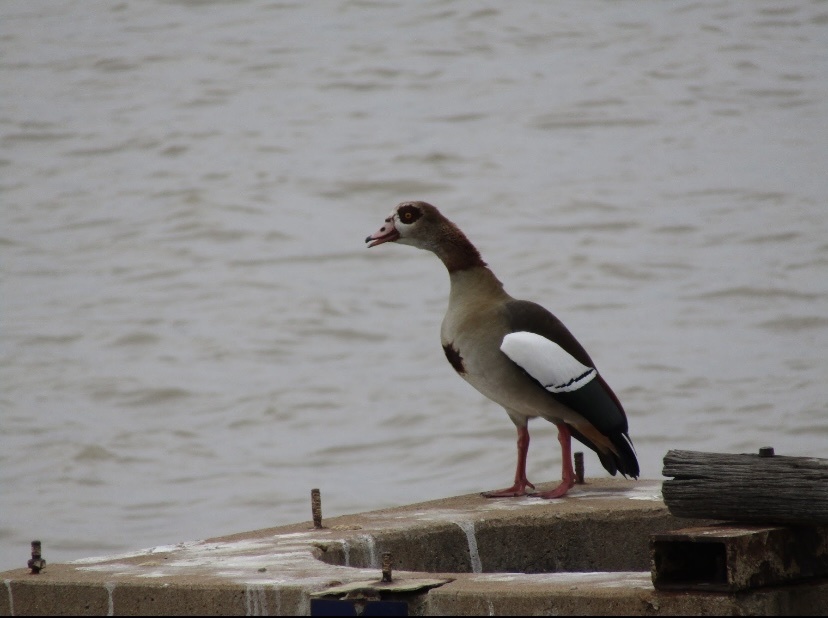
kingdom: Animalia
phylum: Chordata
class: Aves
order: Anseriformes
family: Anatidae
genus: Alopochen
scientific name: Alopochen aegyptiaca
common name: Egyptian goose
